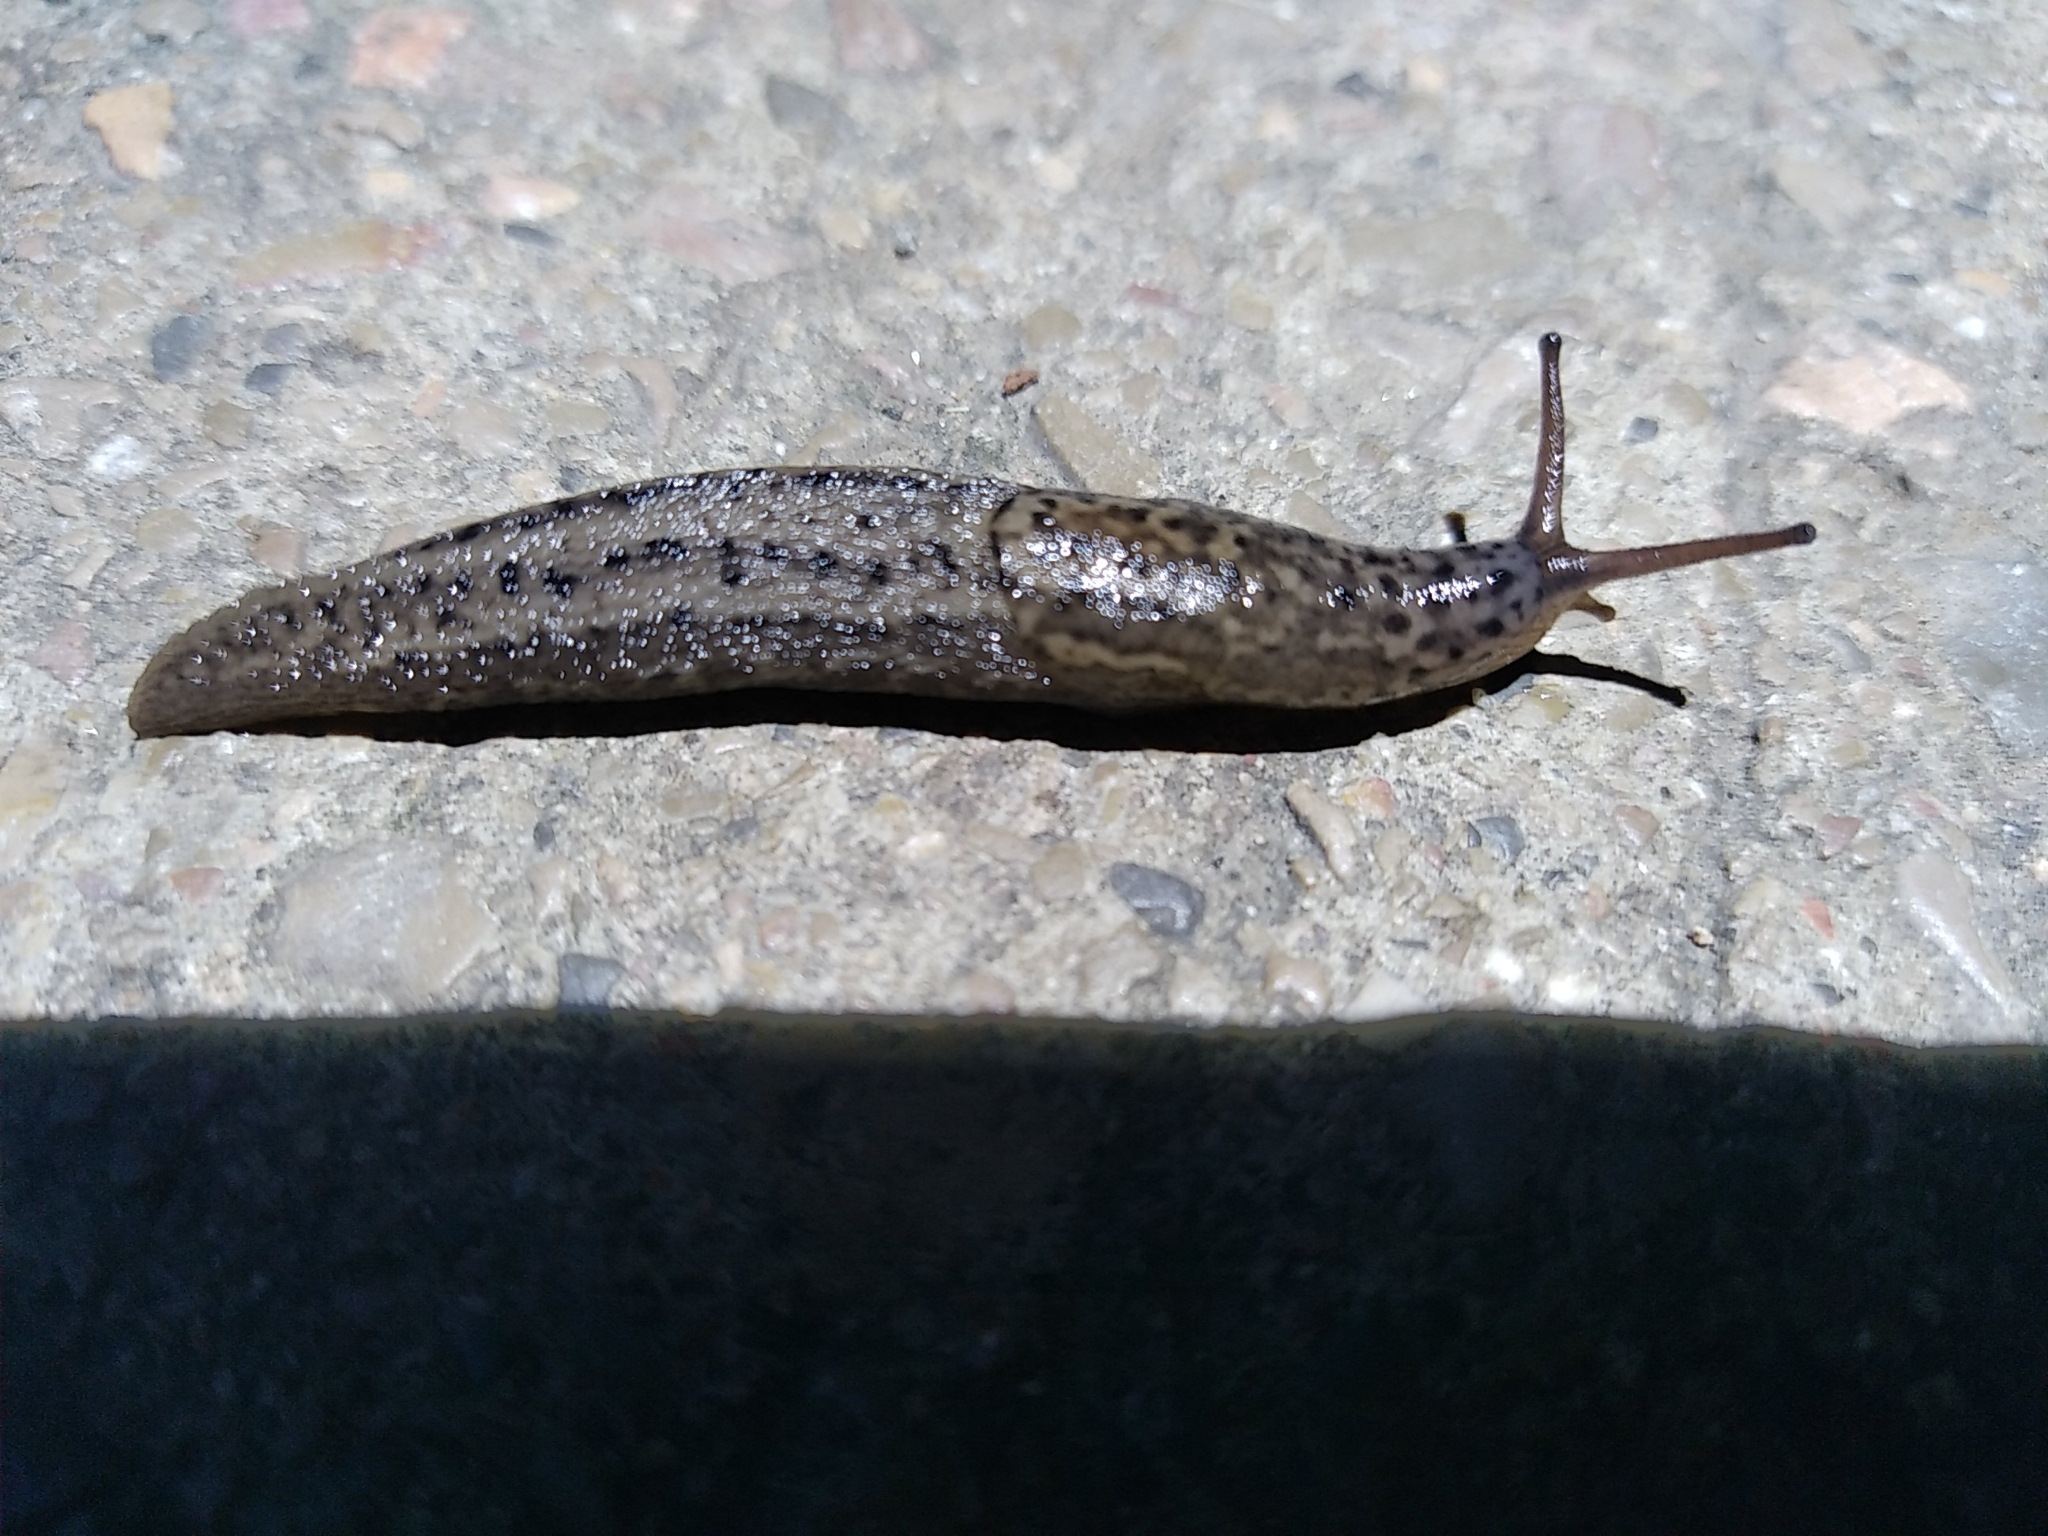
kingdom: Animalia
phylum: Mollusca
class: Gastropoda
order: Stylommatophora
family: Limacidae
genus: Limax
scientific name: Limax maximus
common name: Great grey slug
